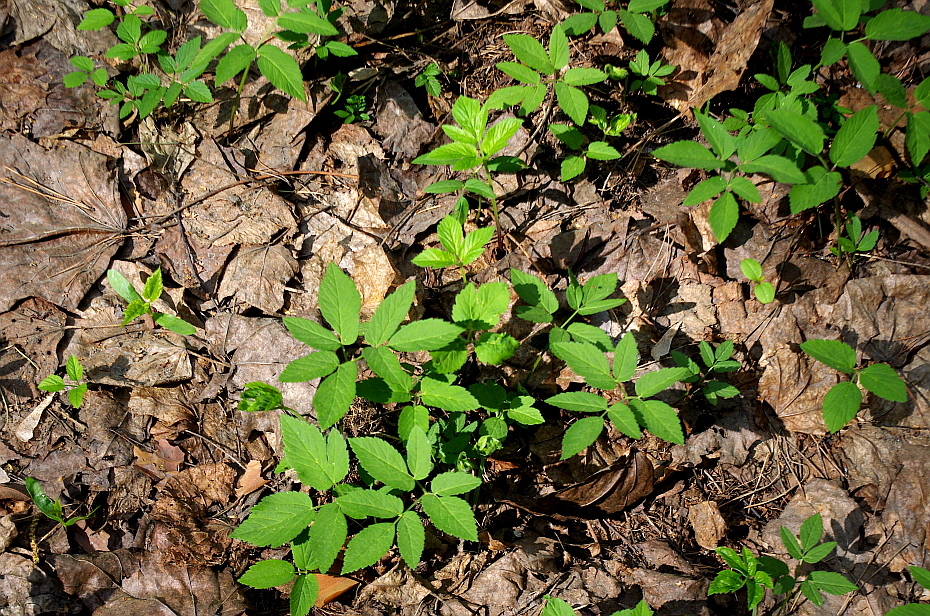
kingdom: Plantae
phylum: Tracheophyta
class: Magnoliopsida
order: Apiales
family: Apiaceae
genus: Aegopodium
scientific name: Aegopodium podagraria
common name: Ground-elder
